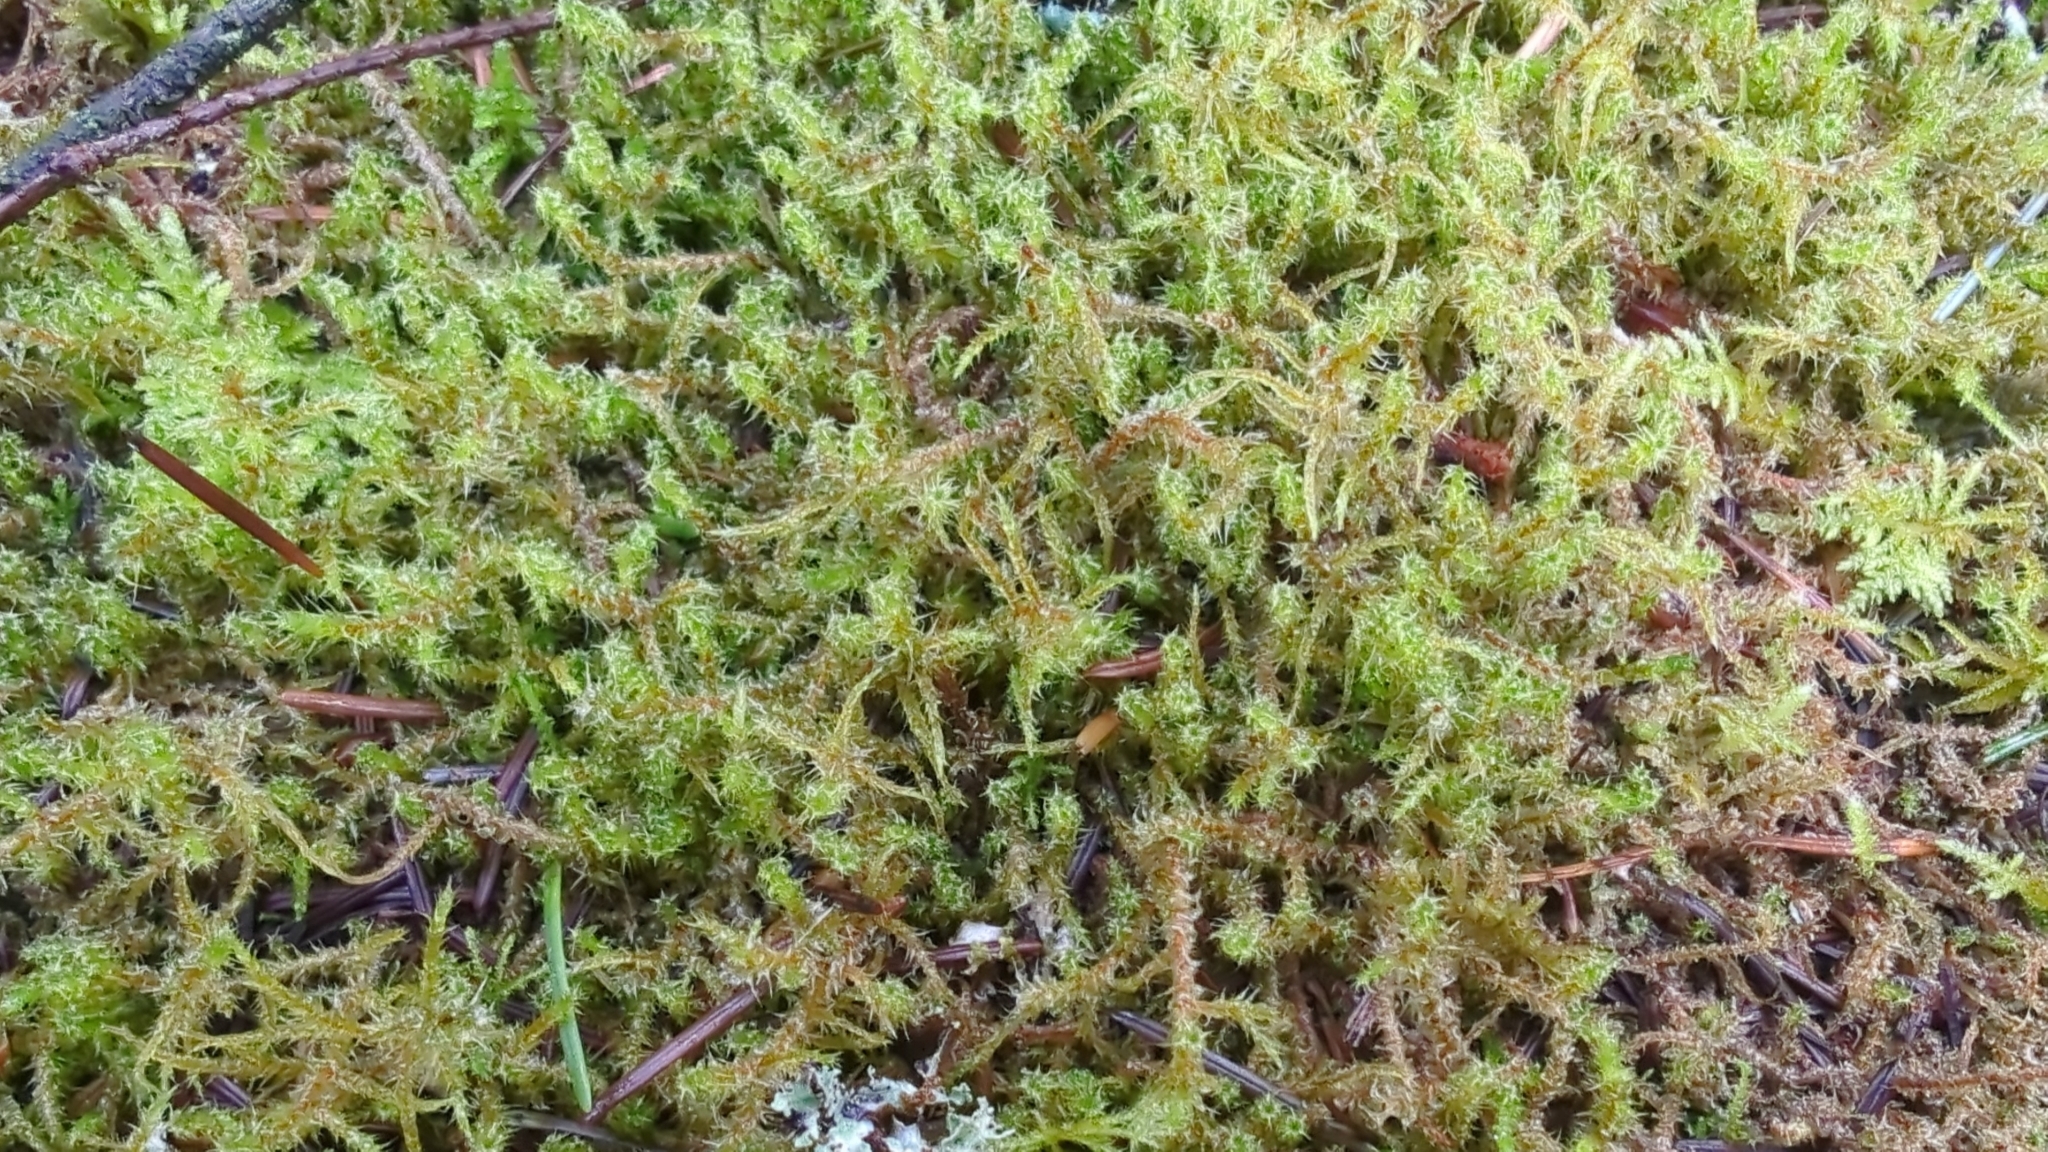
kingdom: Plantae
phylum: Bryophyta
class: Bryopsida
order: Hypnales
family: Hylocomiaceae
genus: Rhytidiadelphus
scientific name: Rhytidiadelphus squarrosus
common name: Springy turf-moss
